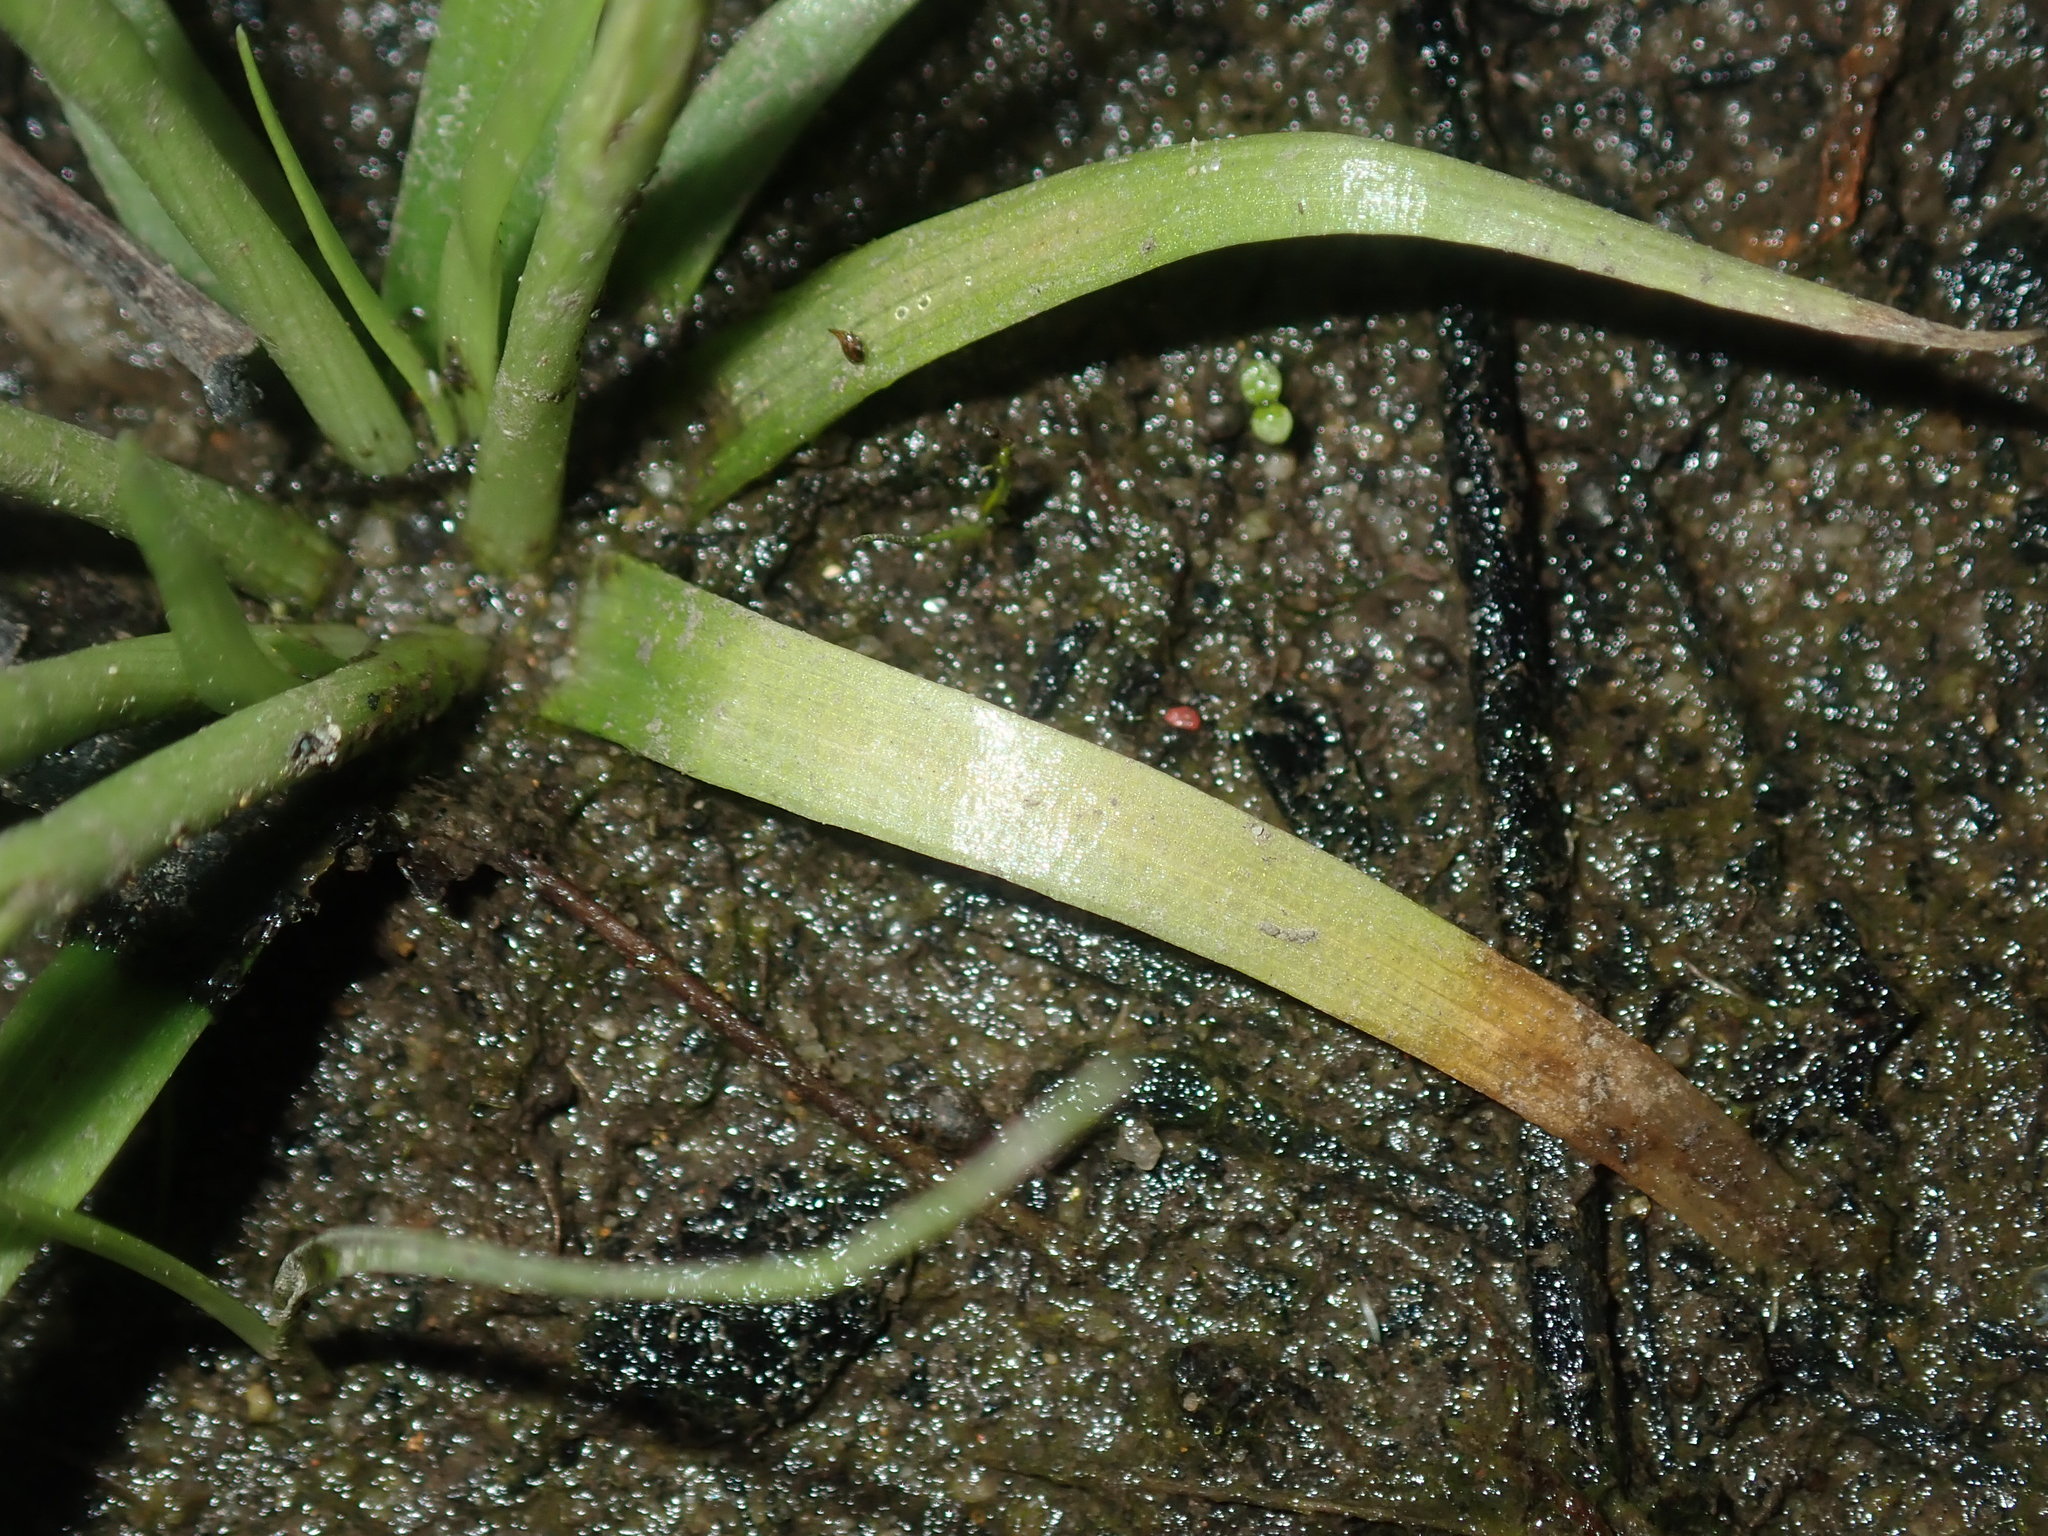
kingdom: Plantae
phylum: Tracheophyta
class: Liliopsida
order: Poales
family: Eriocaulaceae
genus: Eriocaulon
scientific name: Eriocaulon scariosum
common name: Rough pipewort
